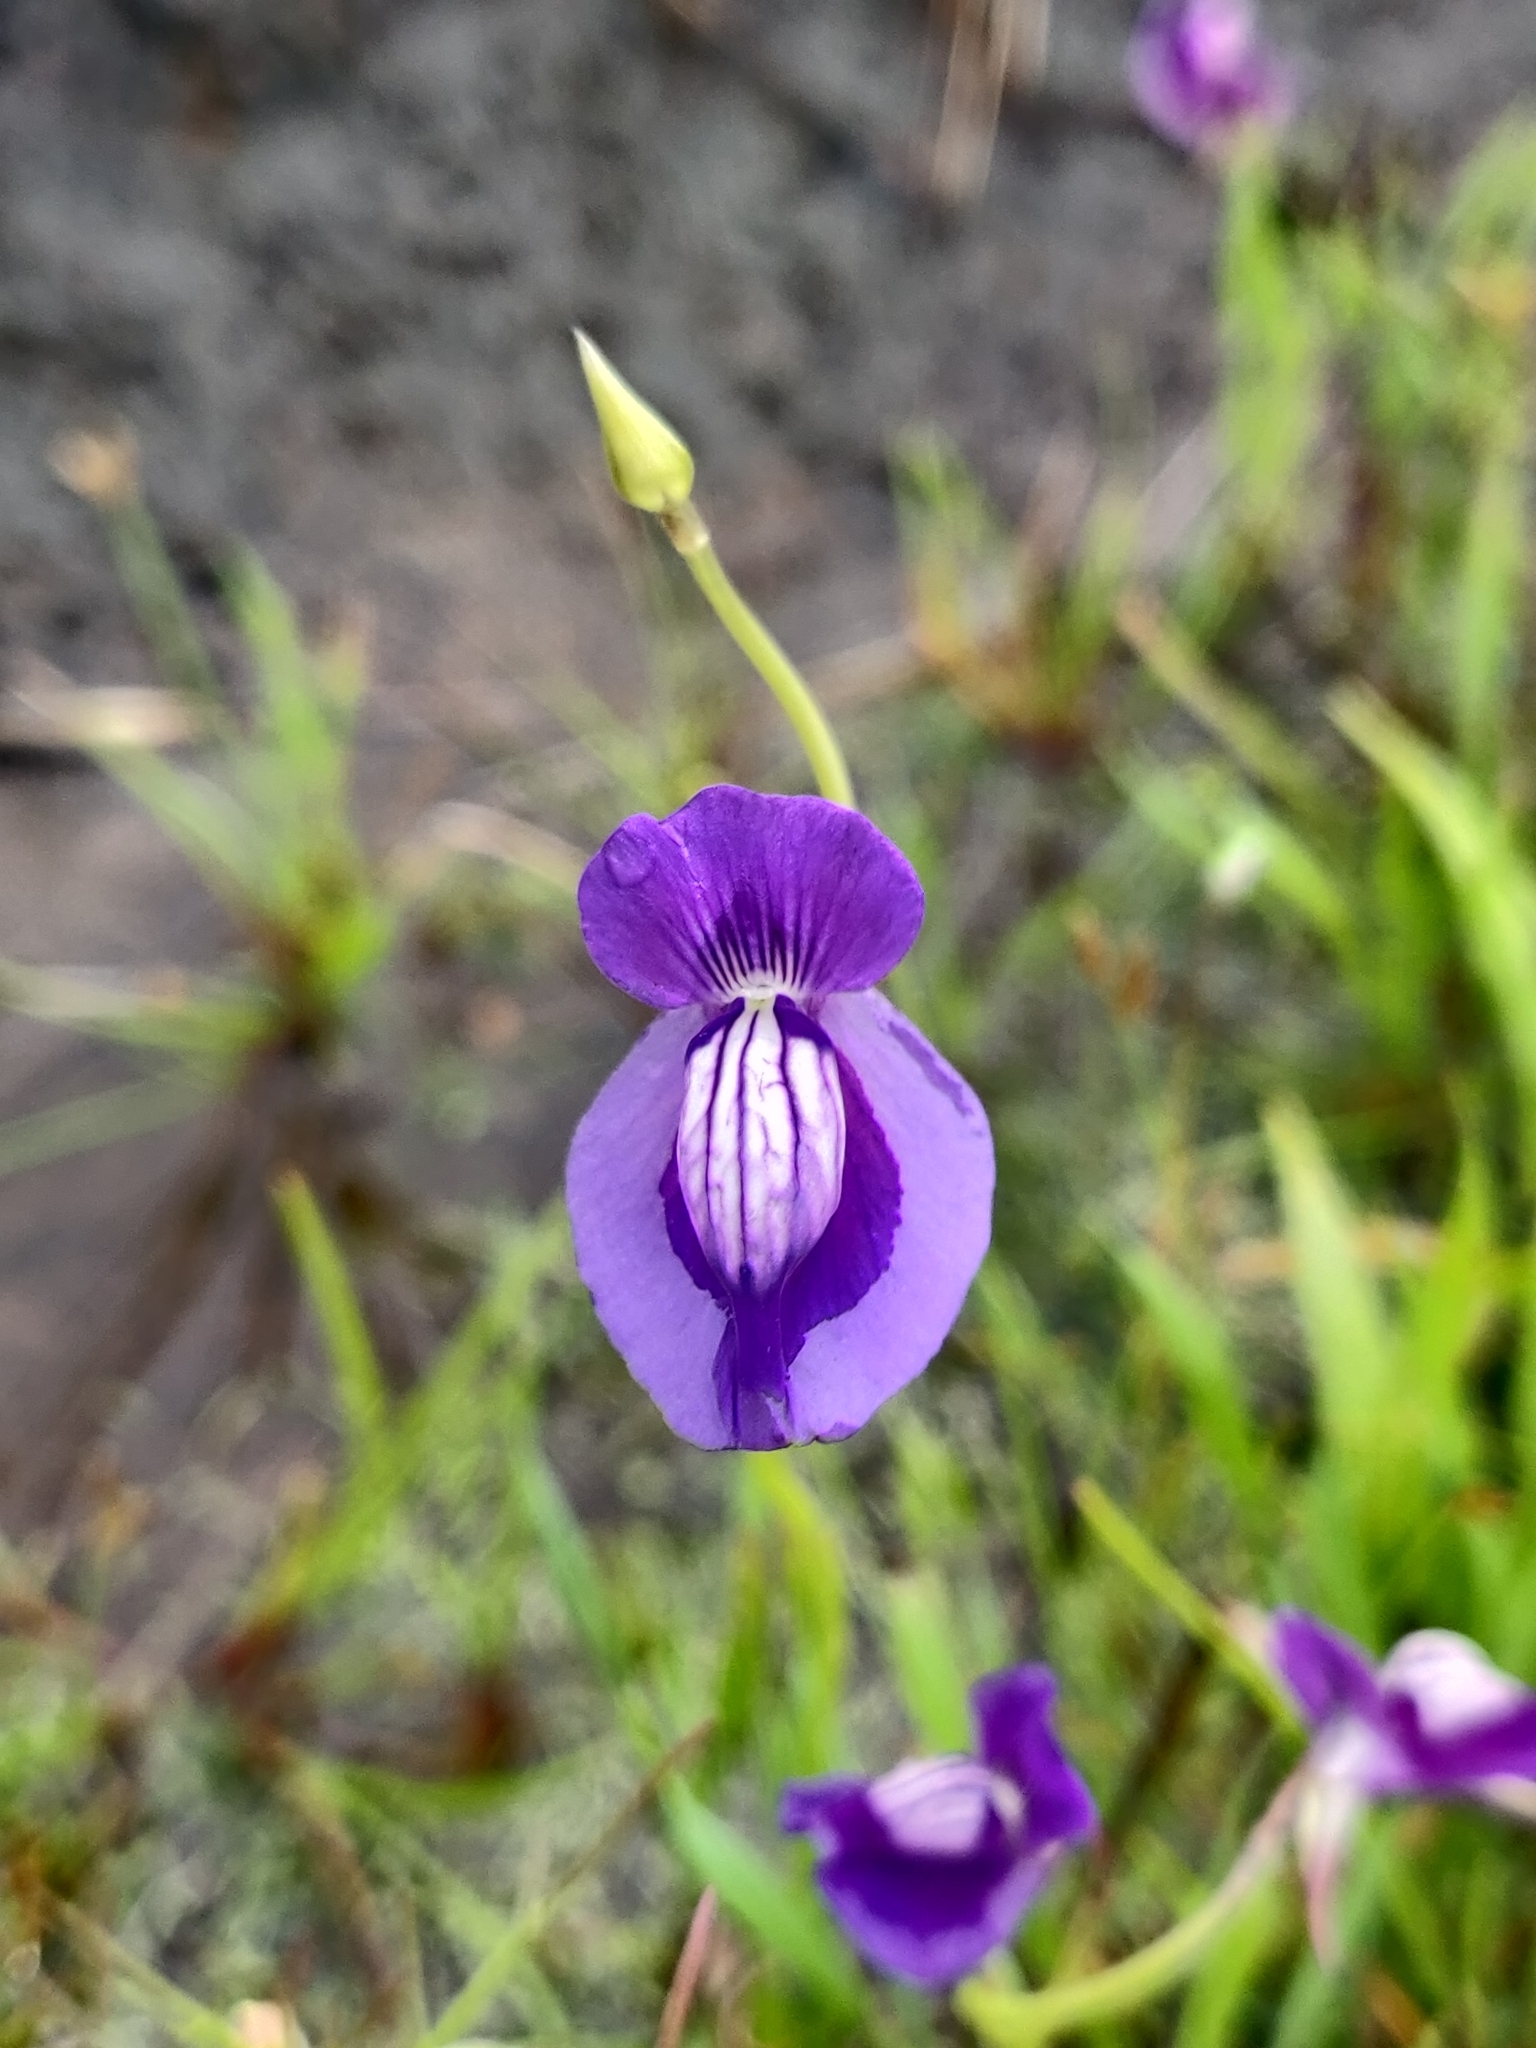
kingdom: Plantae
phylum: Tracheophyta
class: Magnoliopsida
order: Lamiales
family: Lentibulariaceae
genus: Utricularia
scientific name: Utricularia reticulata
